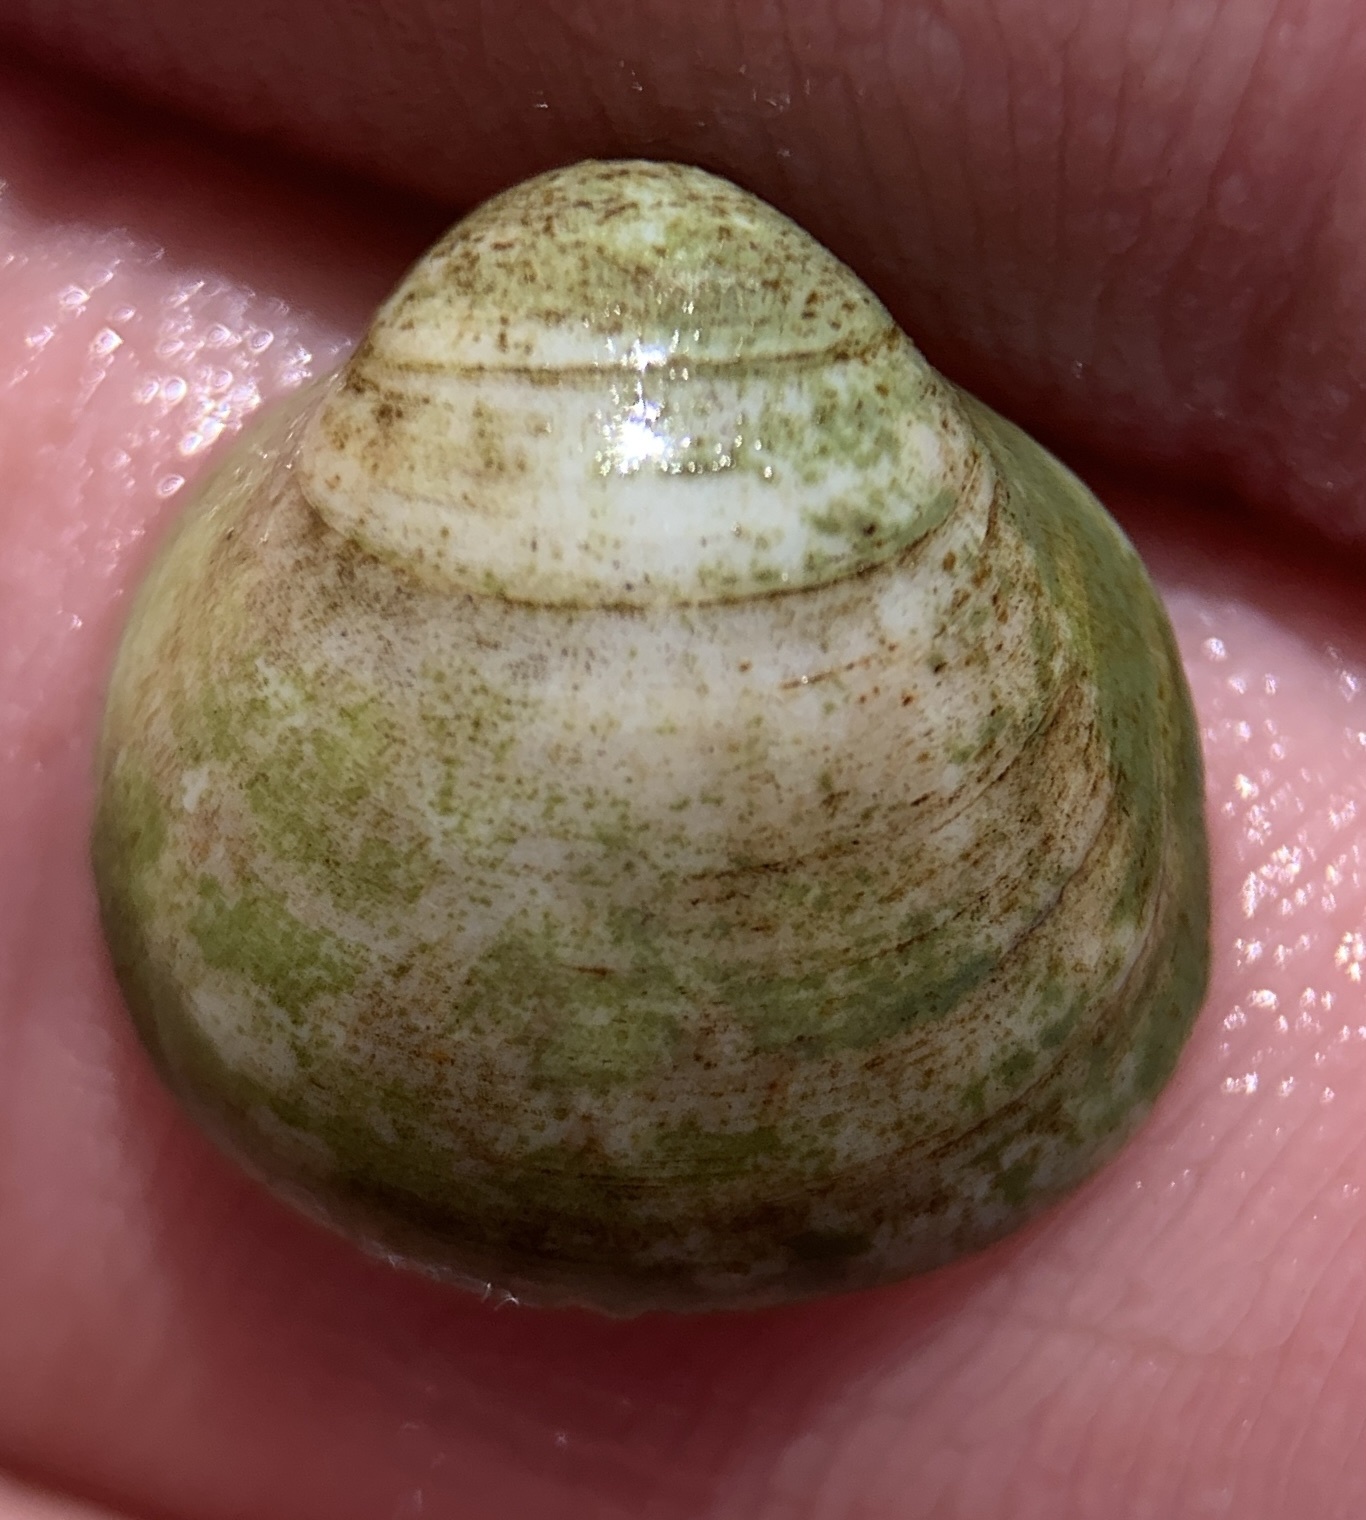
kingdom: Animalia
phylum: Mollusca
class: Bivalvia
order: Cardiida
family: Cardiidae
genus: Laevicardium
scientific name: Laevicardium mortoni
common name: Morton eggcockle
